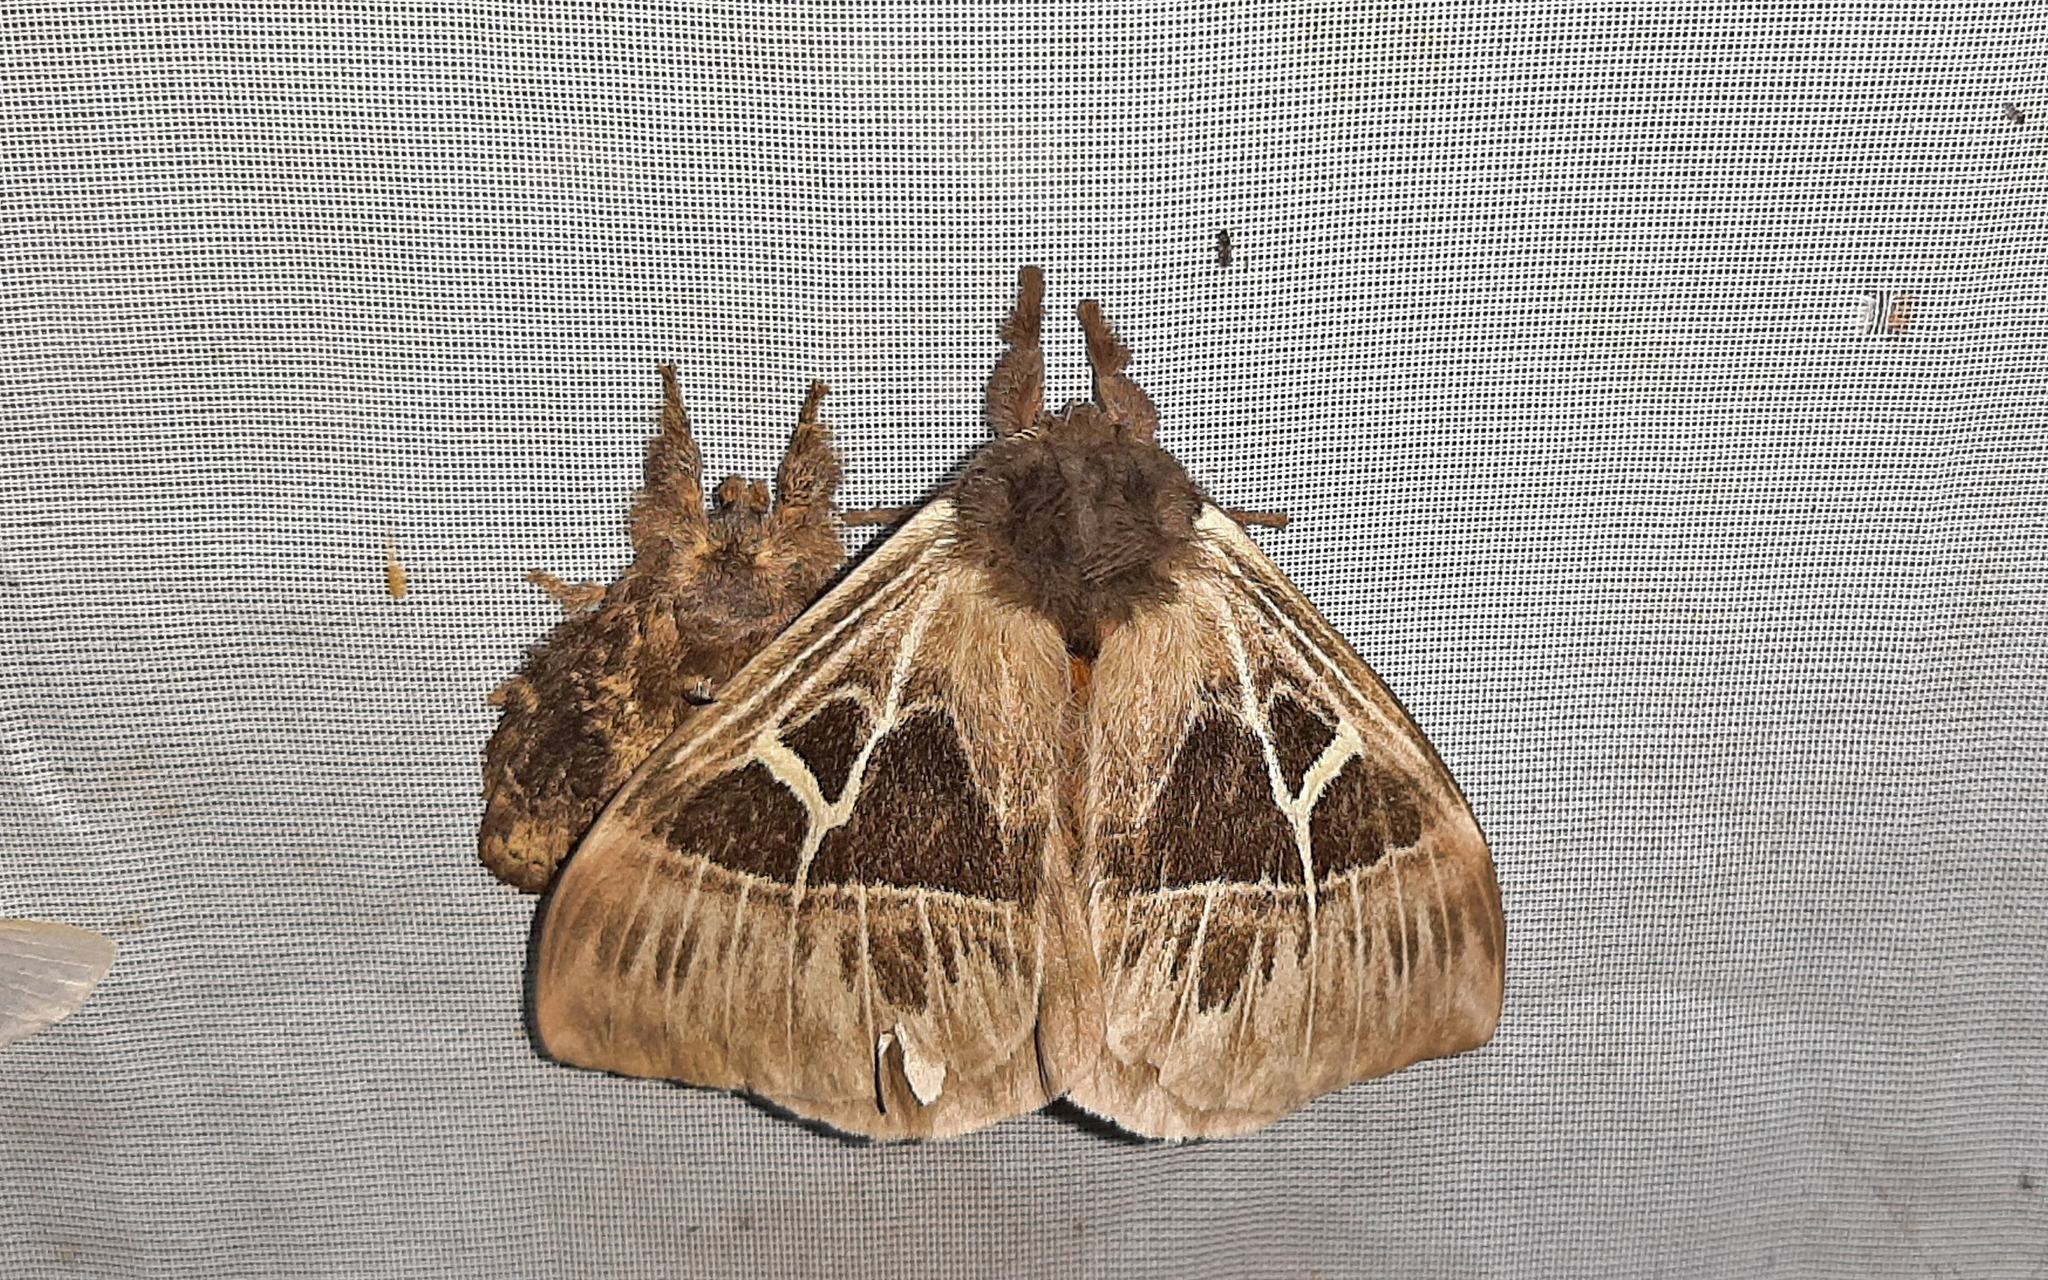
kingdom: Animalia
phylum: Arthropoda
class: Insecta
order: Lepidoptera
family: Saturniidae
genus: Dirphia
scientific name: Dirphia subhorca
